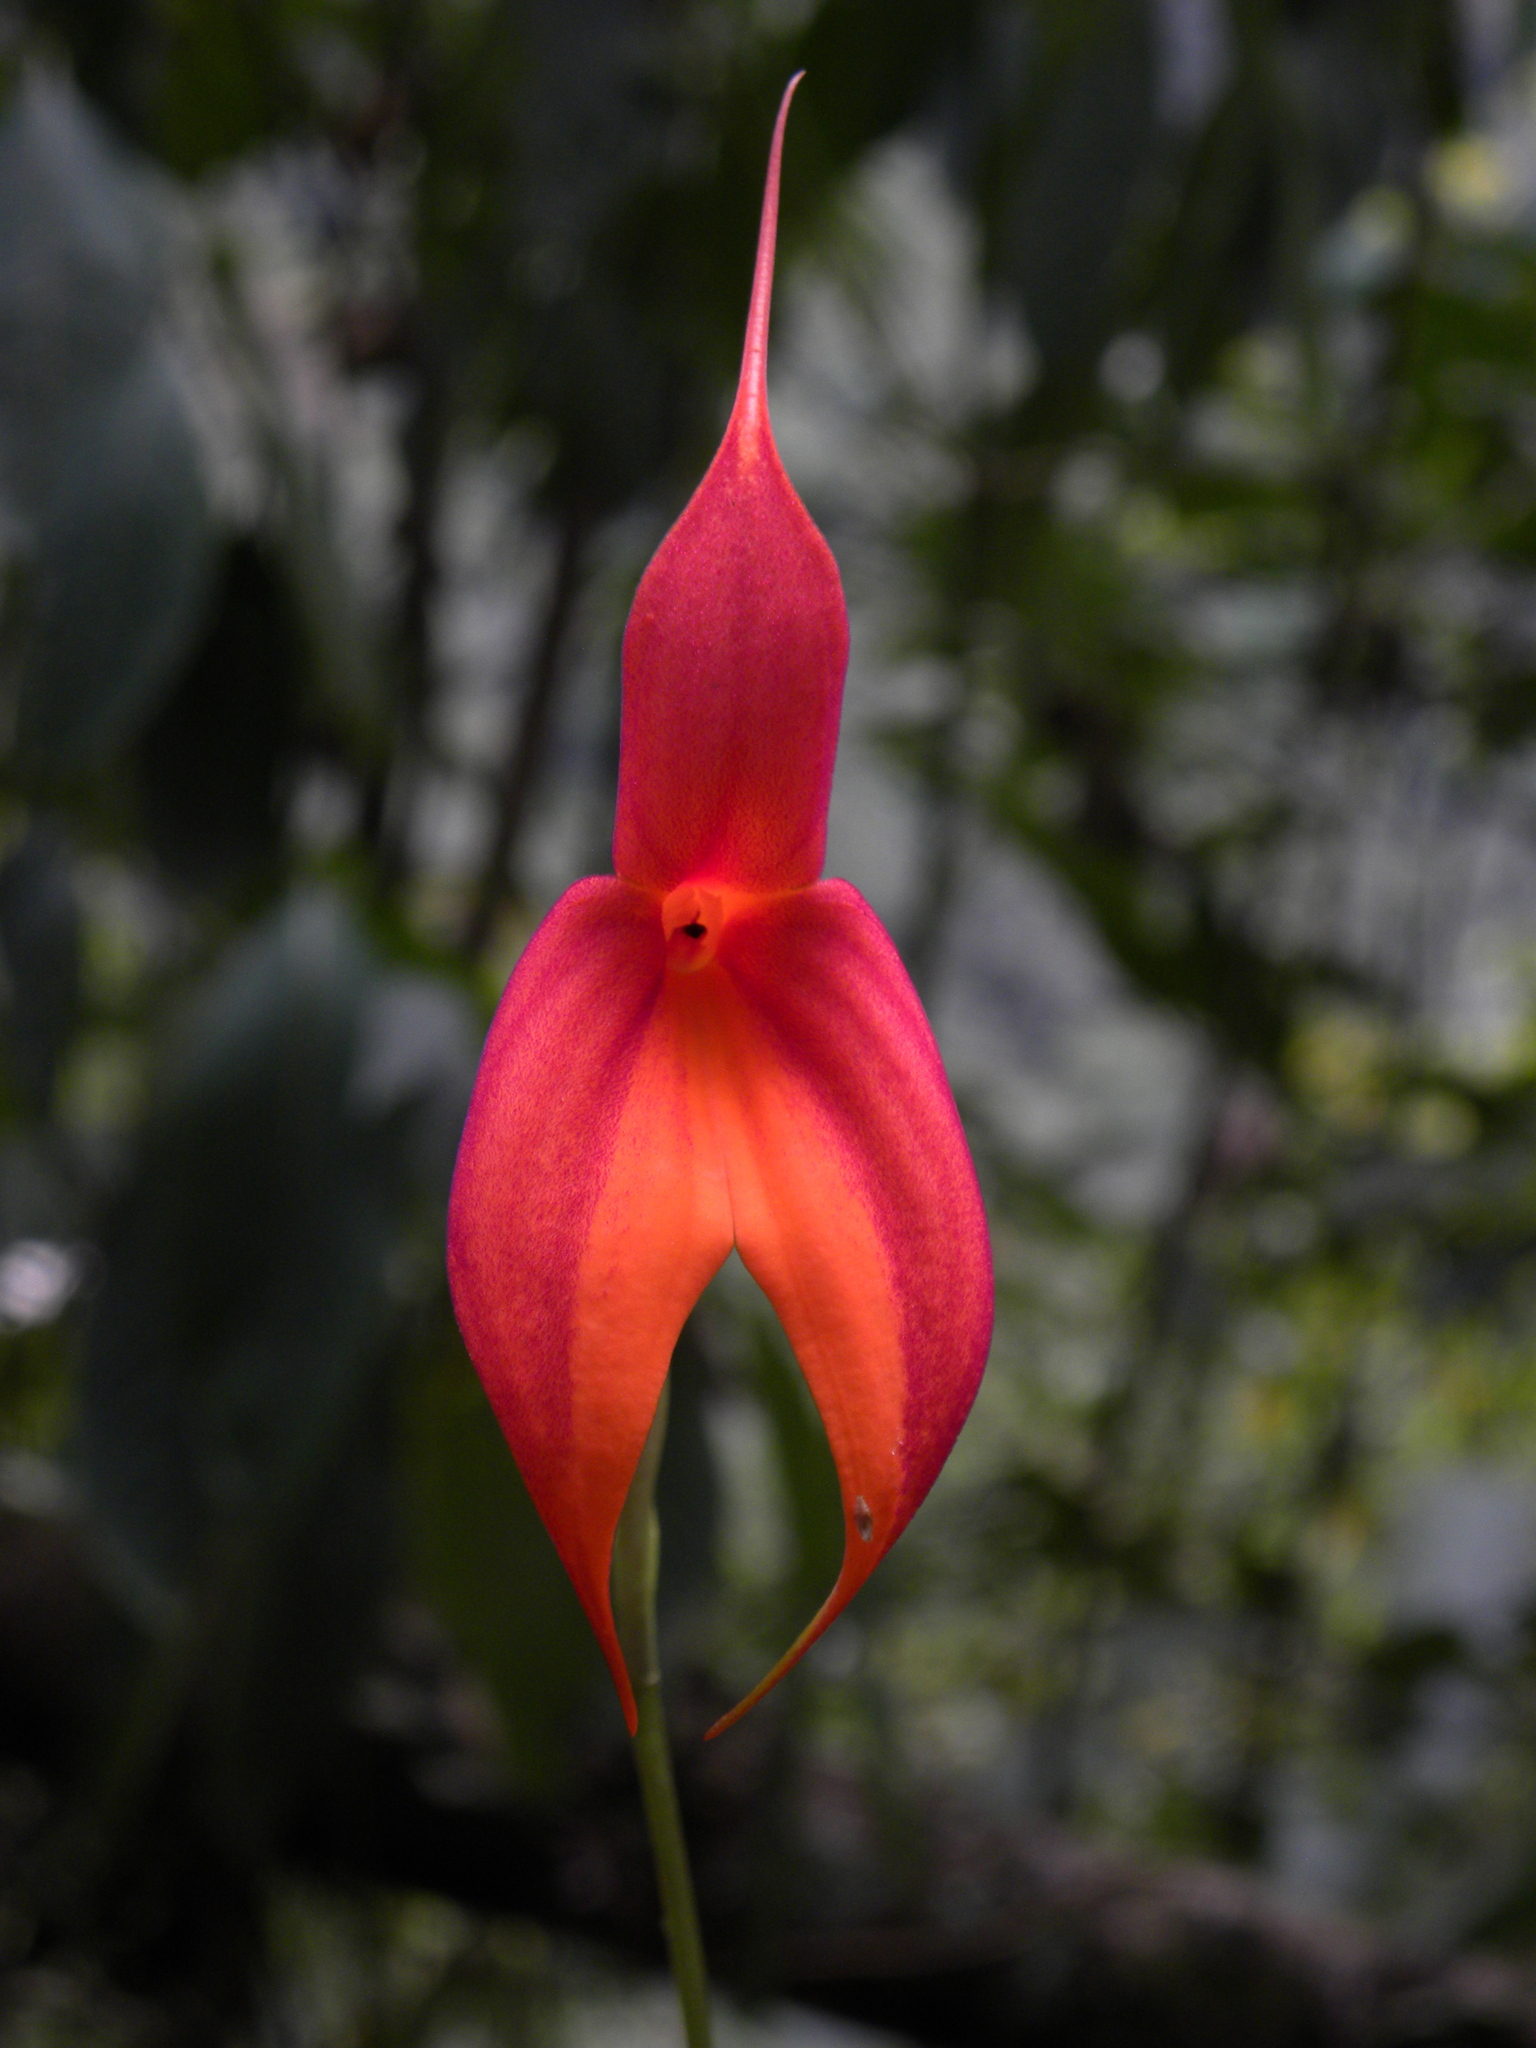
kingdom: Plantae
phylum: Tracheophyta
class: Liliopsida
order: Asparagales
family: Orchidaceae
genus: Masdevallia
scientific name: Masdevallia veitchiana
